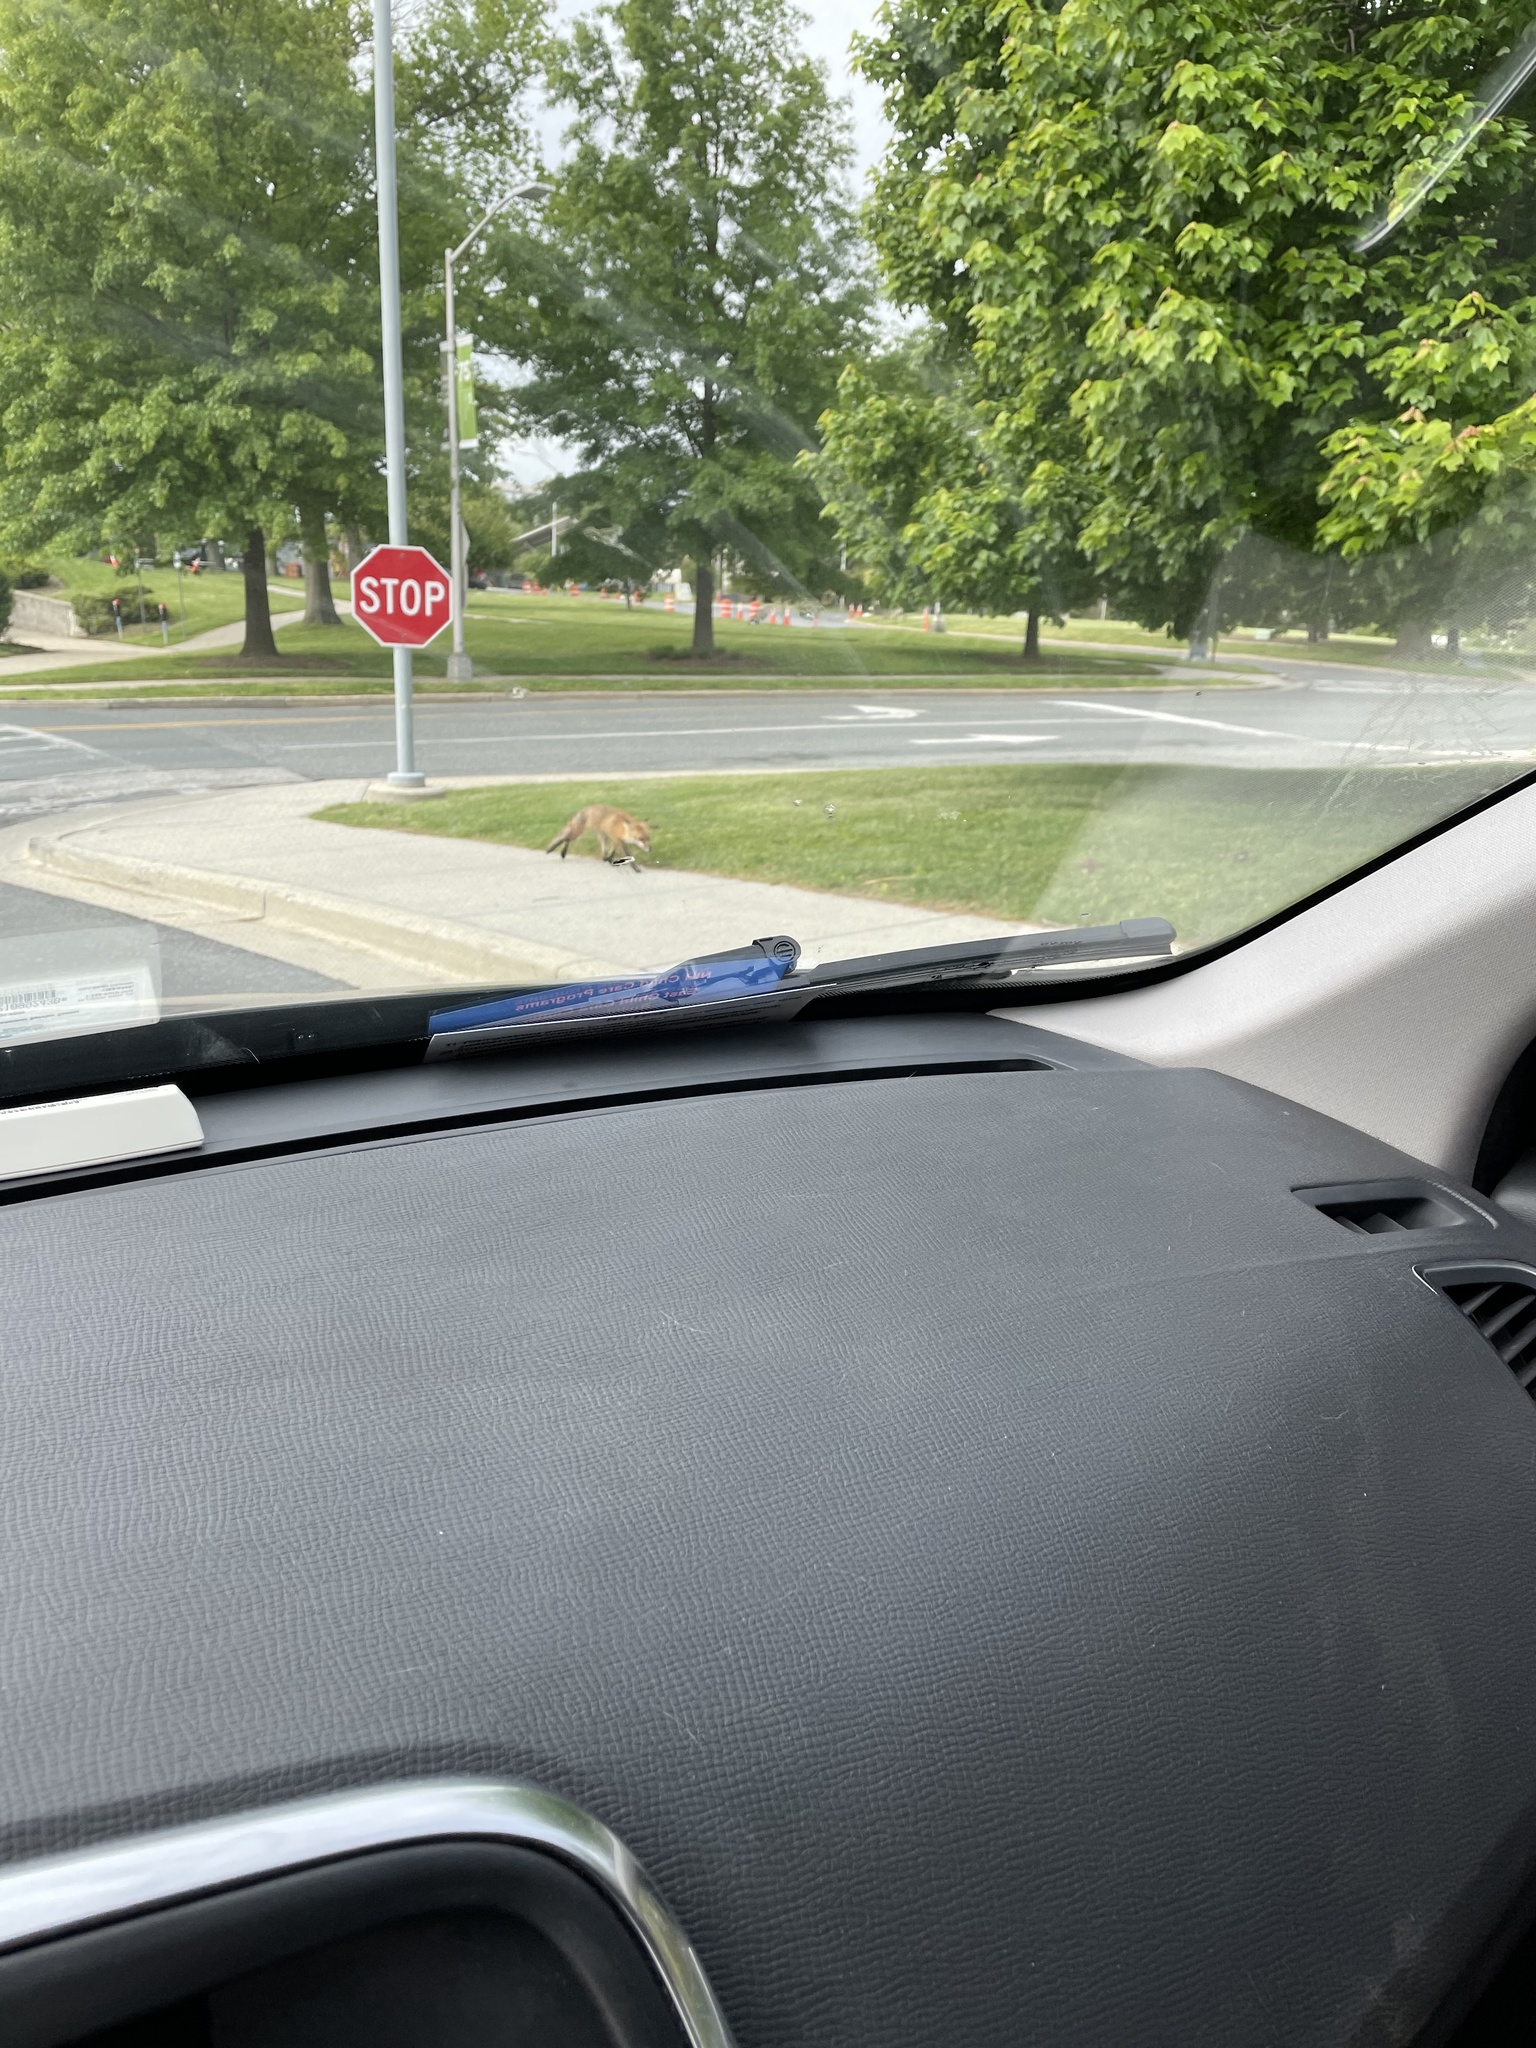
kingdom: Animalia
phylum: Chordata
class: Mammalia
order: Carnivora
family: Canidae
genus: Vulpes
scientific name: Vulpes vulpes
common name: Red fox
